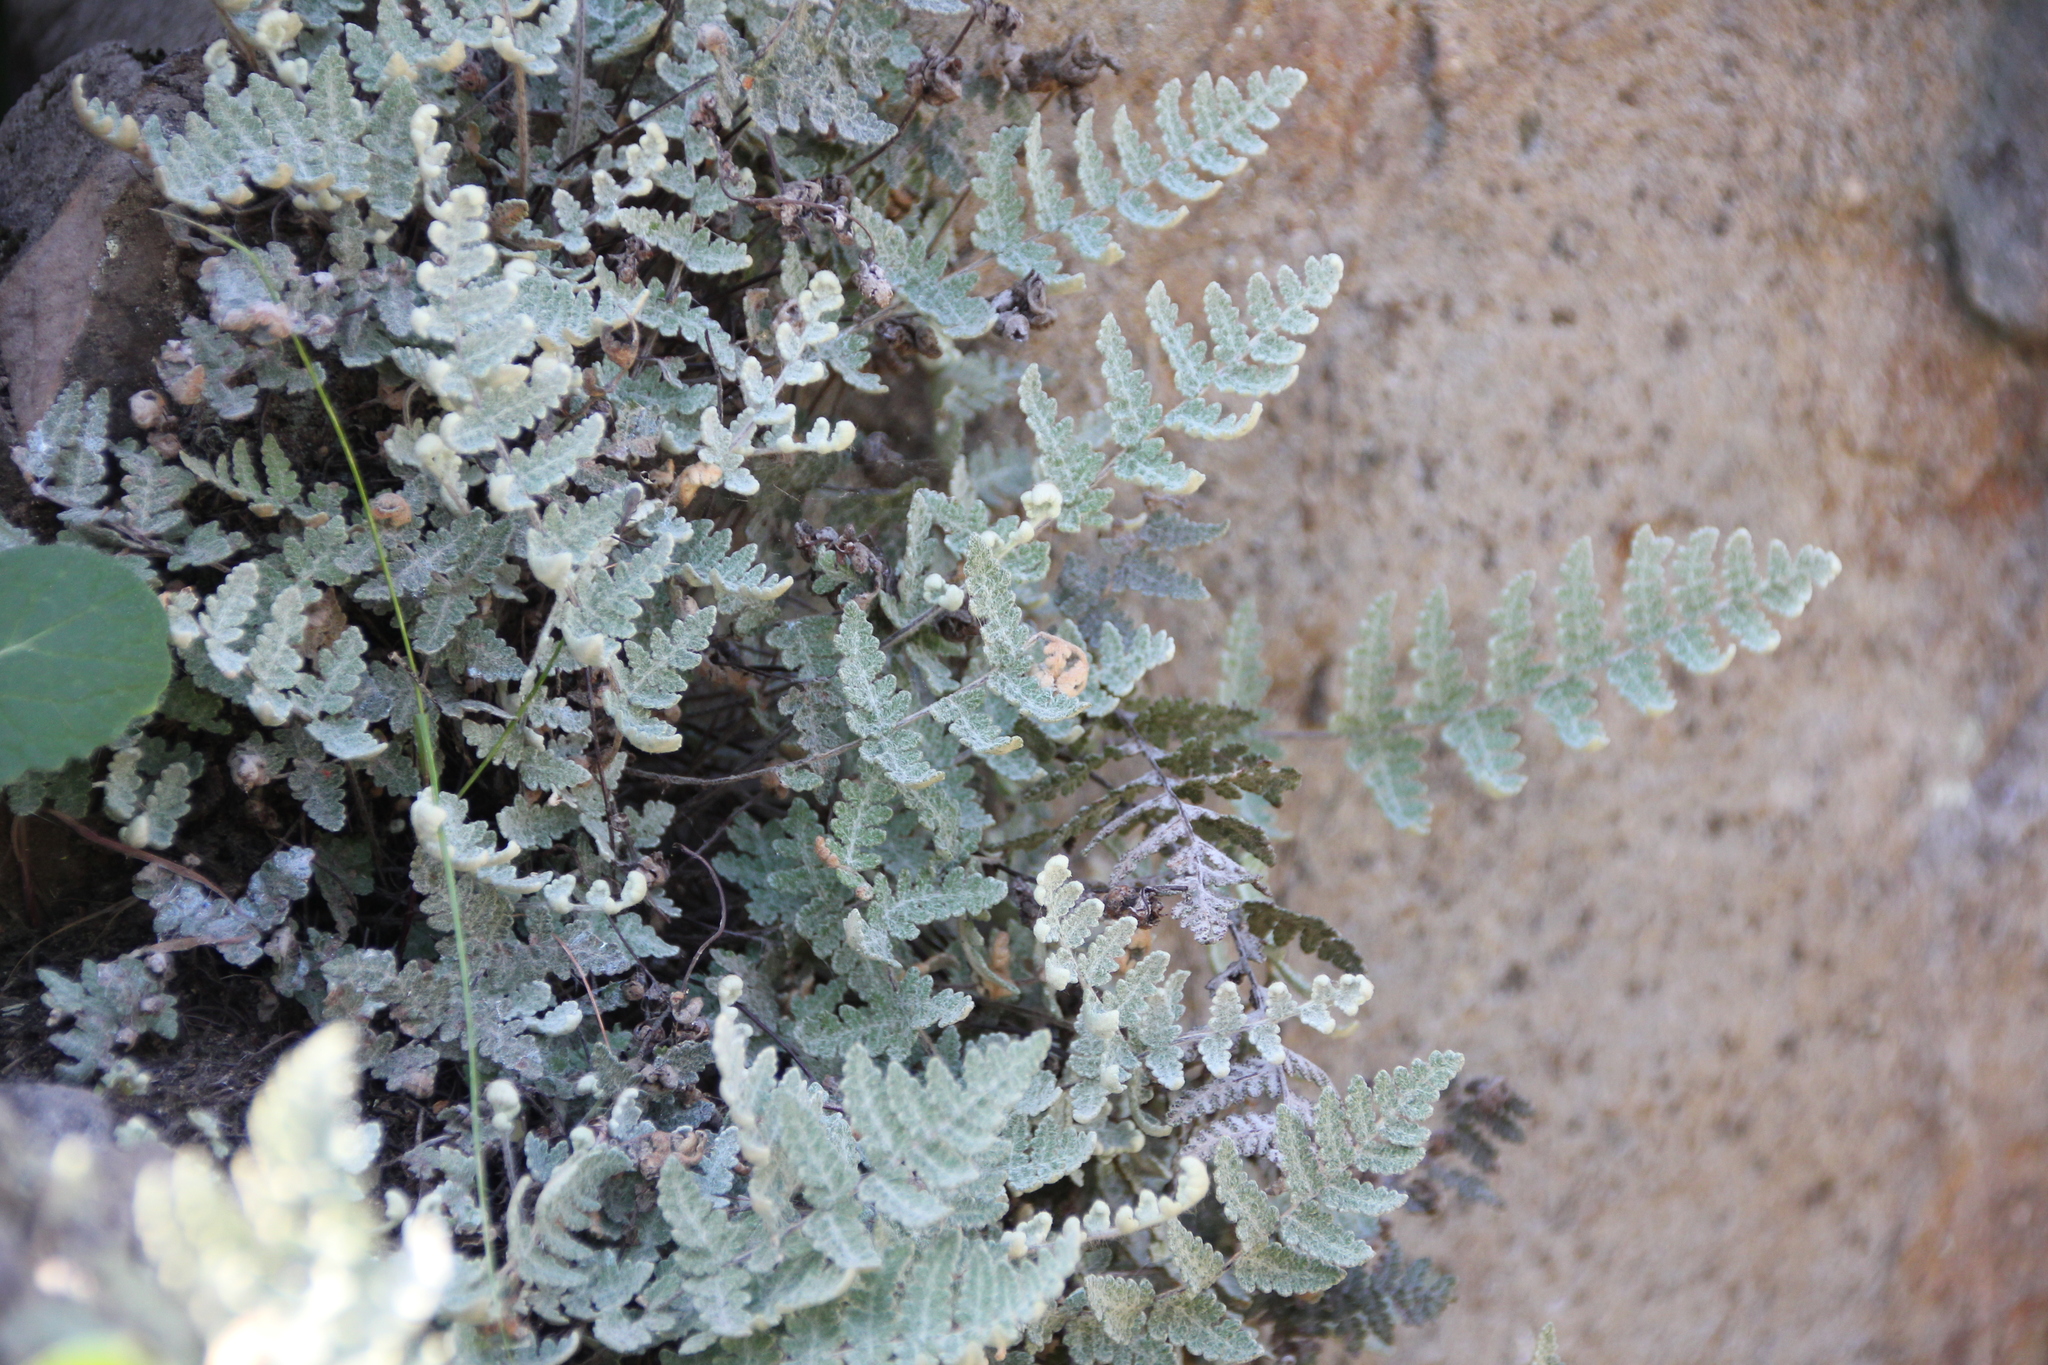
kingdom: Plantae
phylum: Tracheophyta
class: Polypodiopsida
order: Polypodiales
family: Pteridaceae
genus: Myriopteris
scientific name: Myriopteris newberryi
